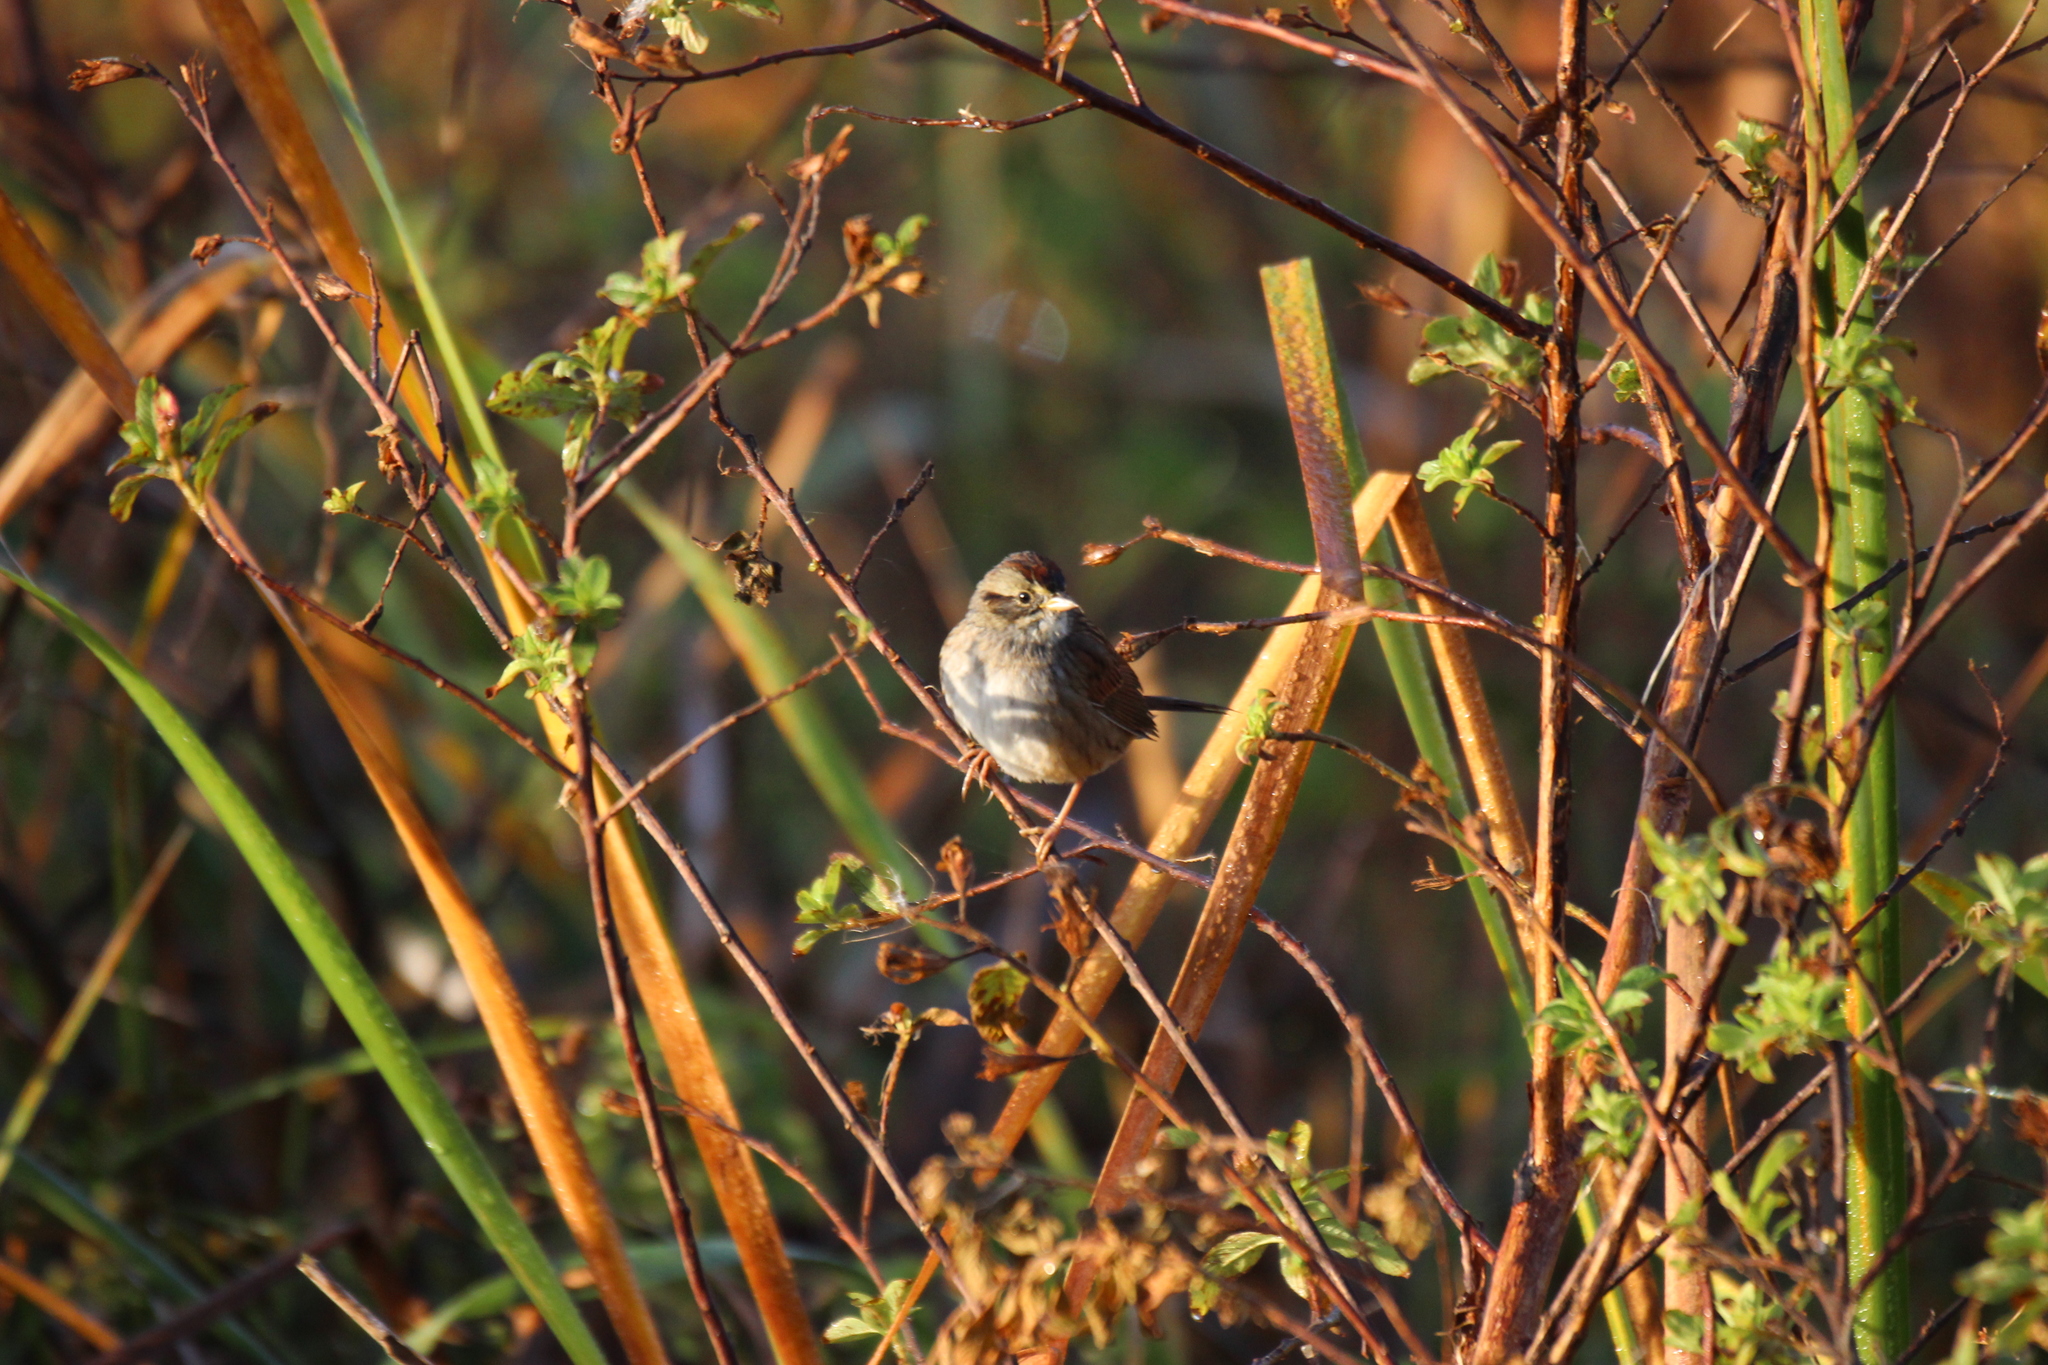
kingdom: Animalia
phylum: Chordata
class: Aves
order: Passeriformes
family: Passerellidae
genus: Melospiza
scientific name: Melospiza georgiana
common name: Swamp sparrow
